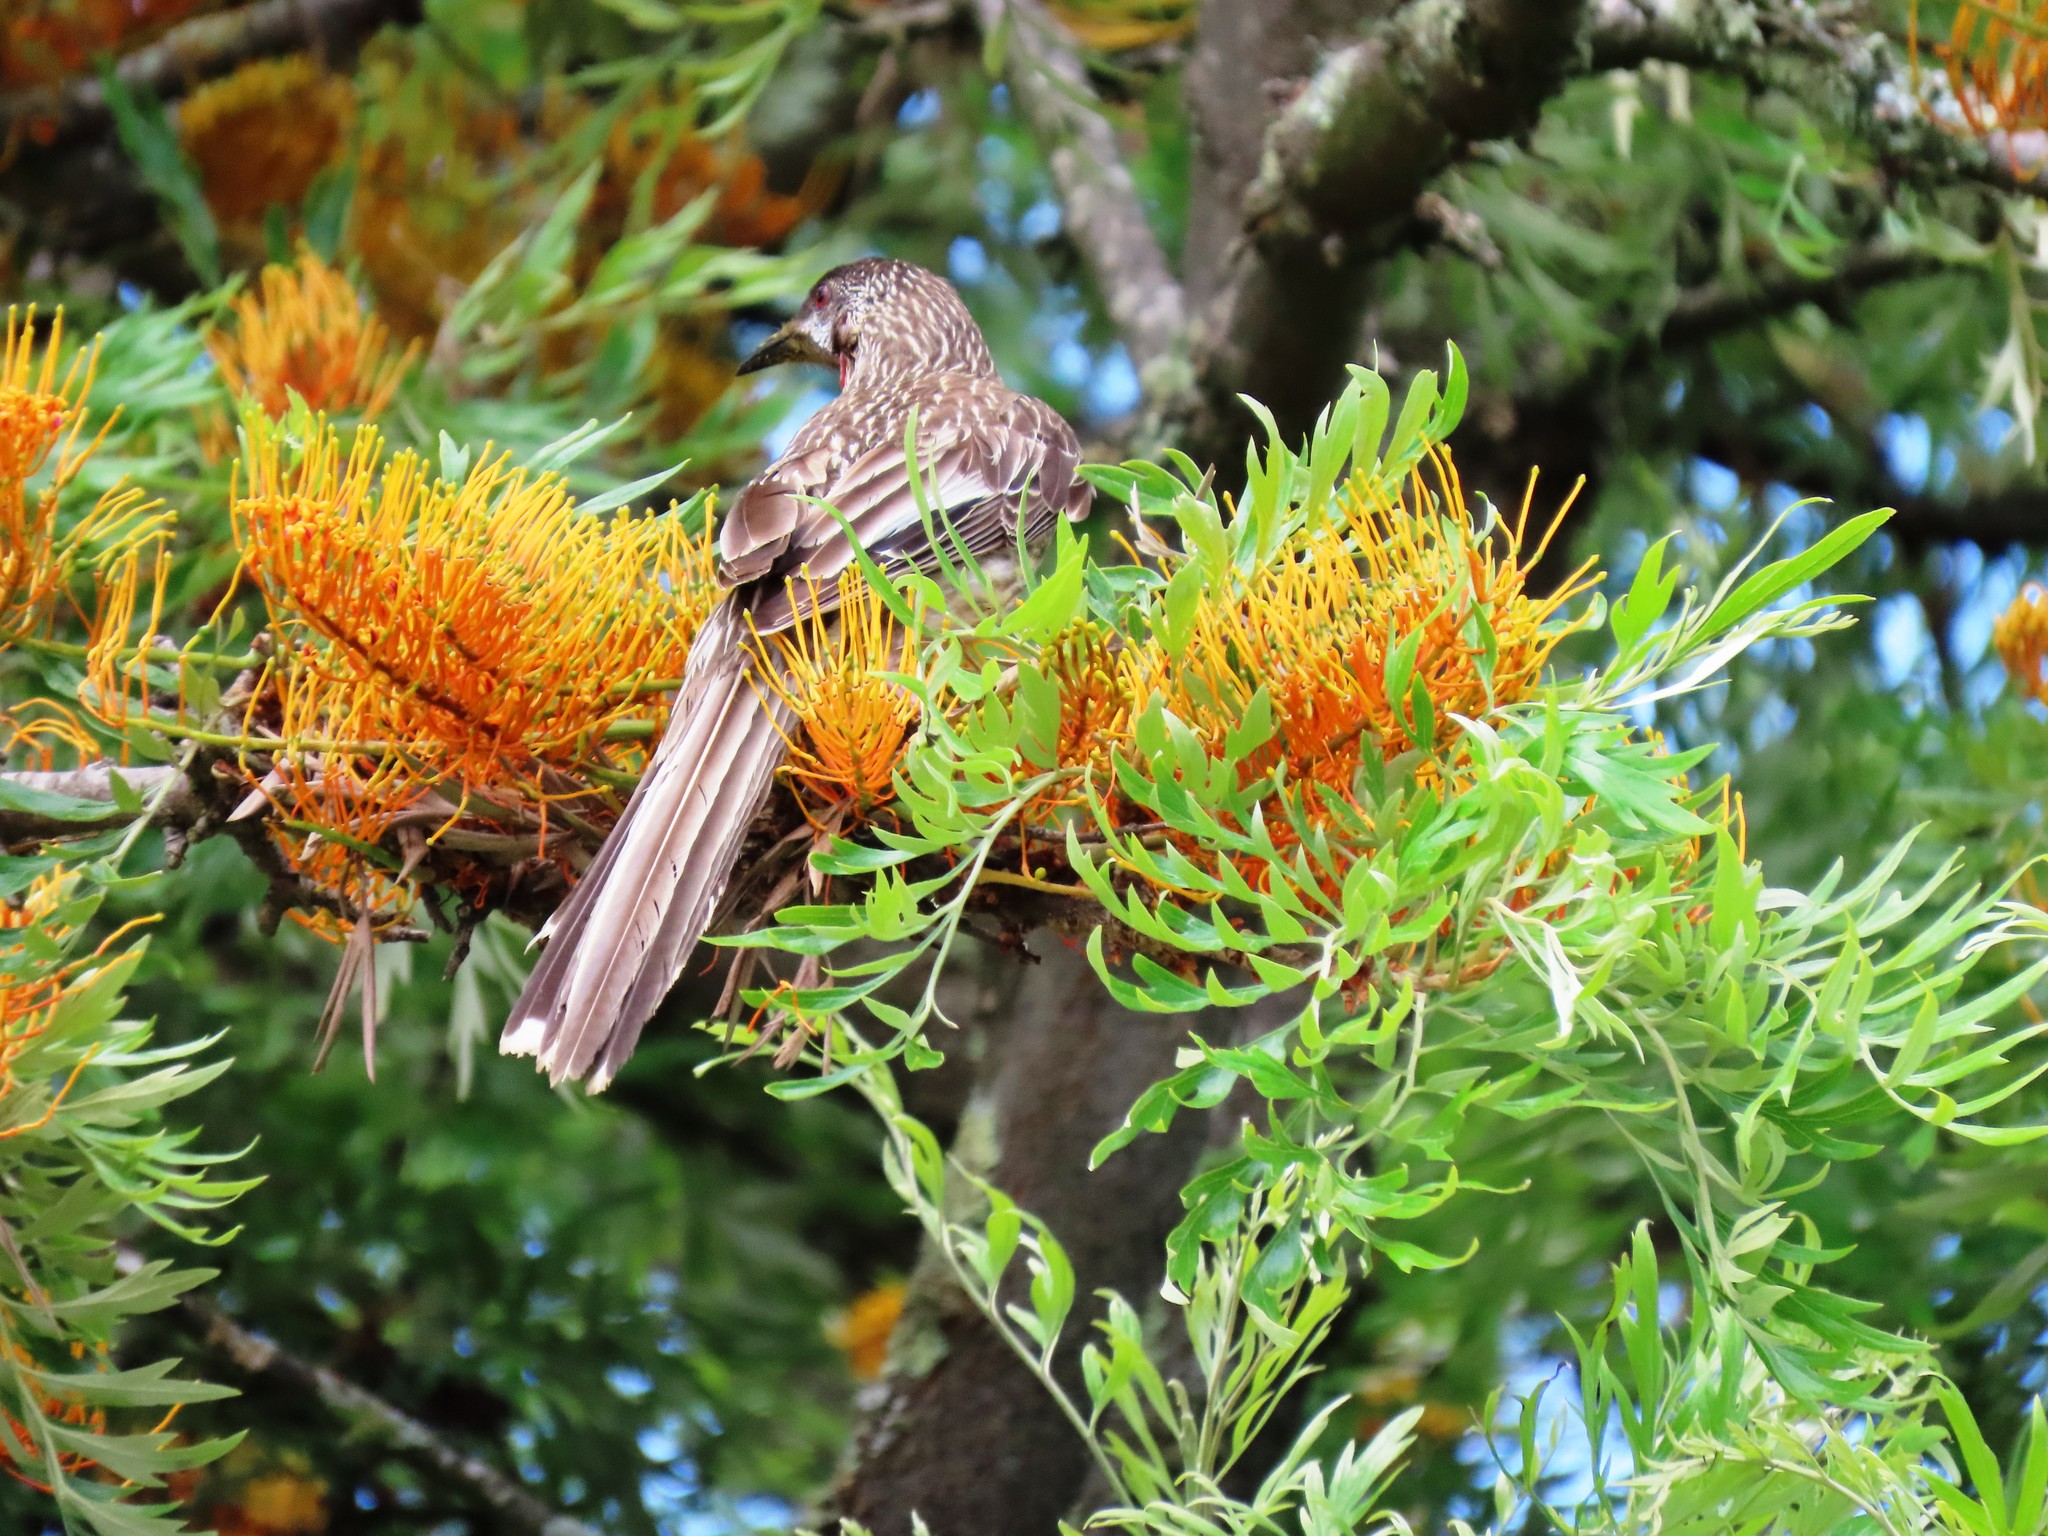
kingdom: Animalia
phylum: Chordata
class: Aves
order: Passeriformes
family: Meliphagidae
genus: Anthochaera
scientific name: Anthochaera carunculata
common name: Red wattlebird
